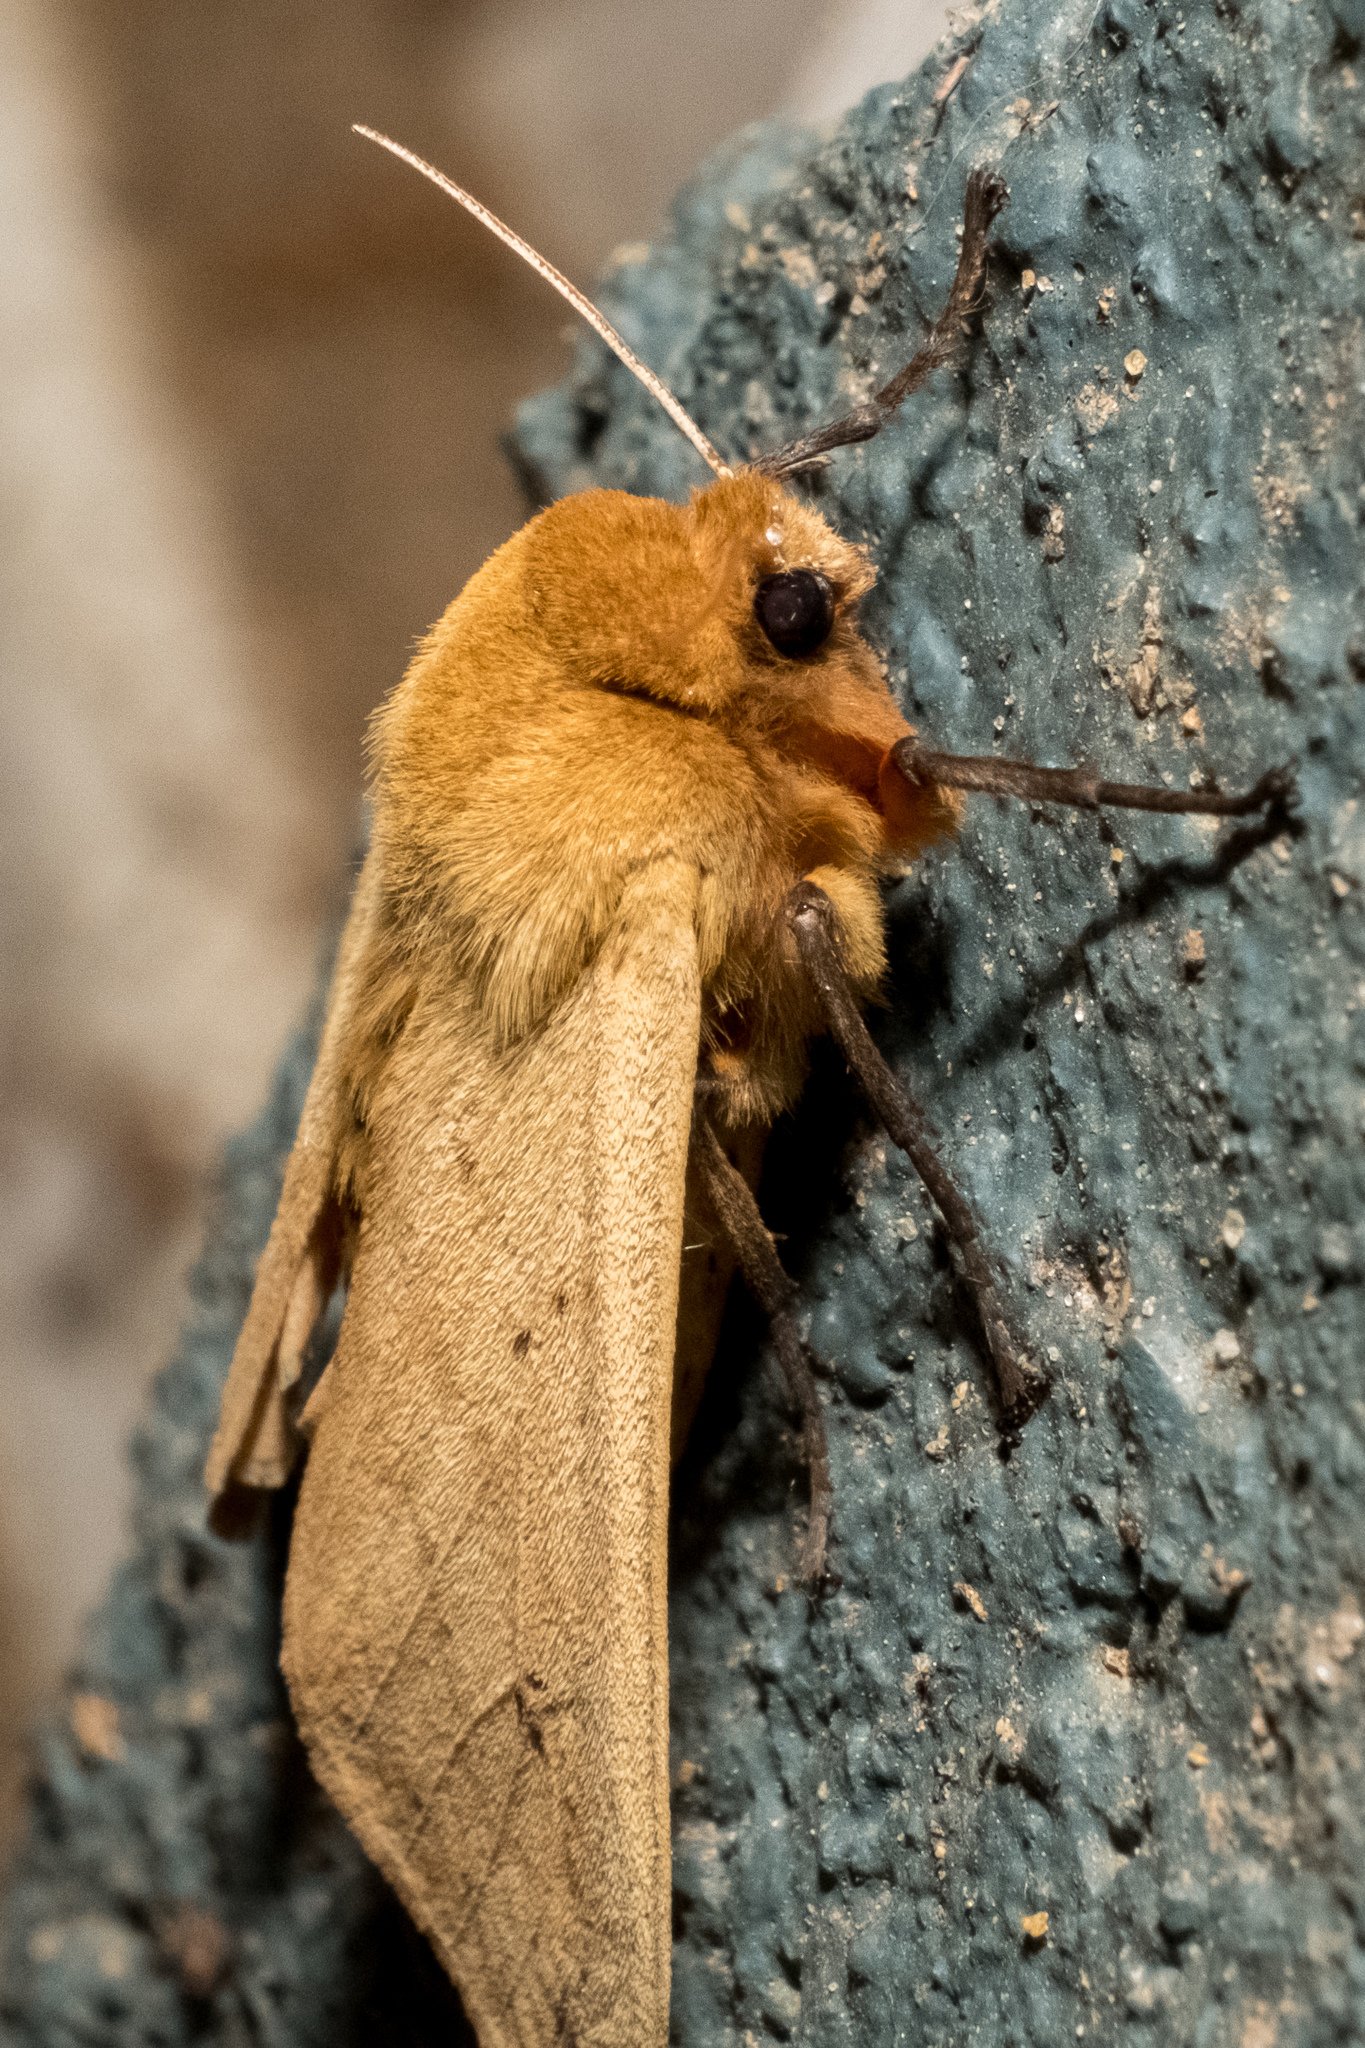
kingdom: Animalia
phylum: Arthropoda
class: Insecta
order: Lepidoptera
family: Erebidae
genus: Pyrrharctia
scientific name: Pyrrharctia isabella
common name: Isabella tiger moth
